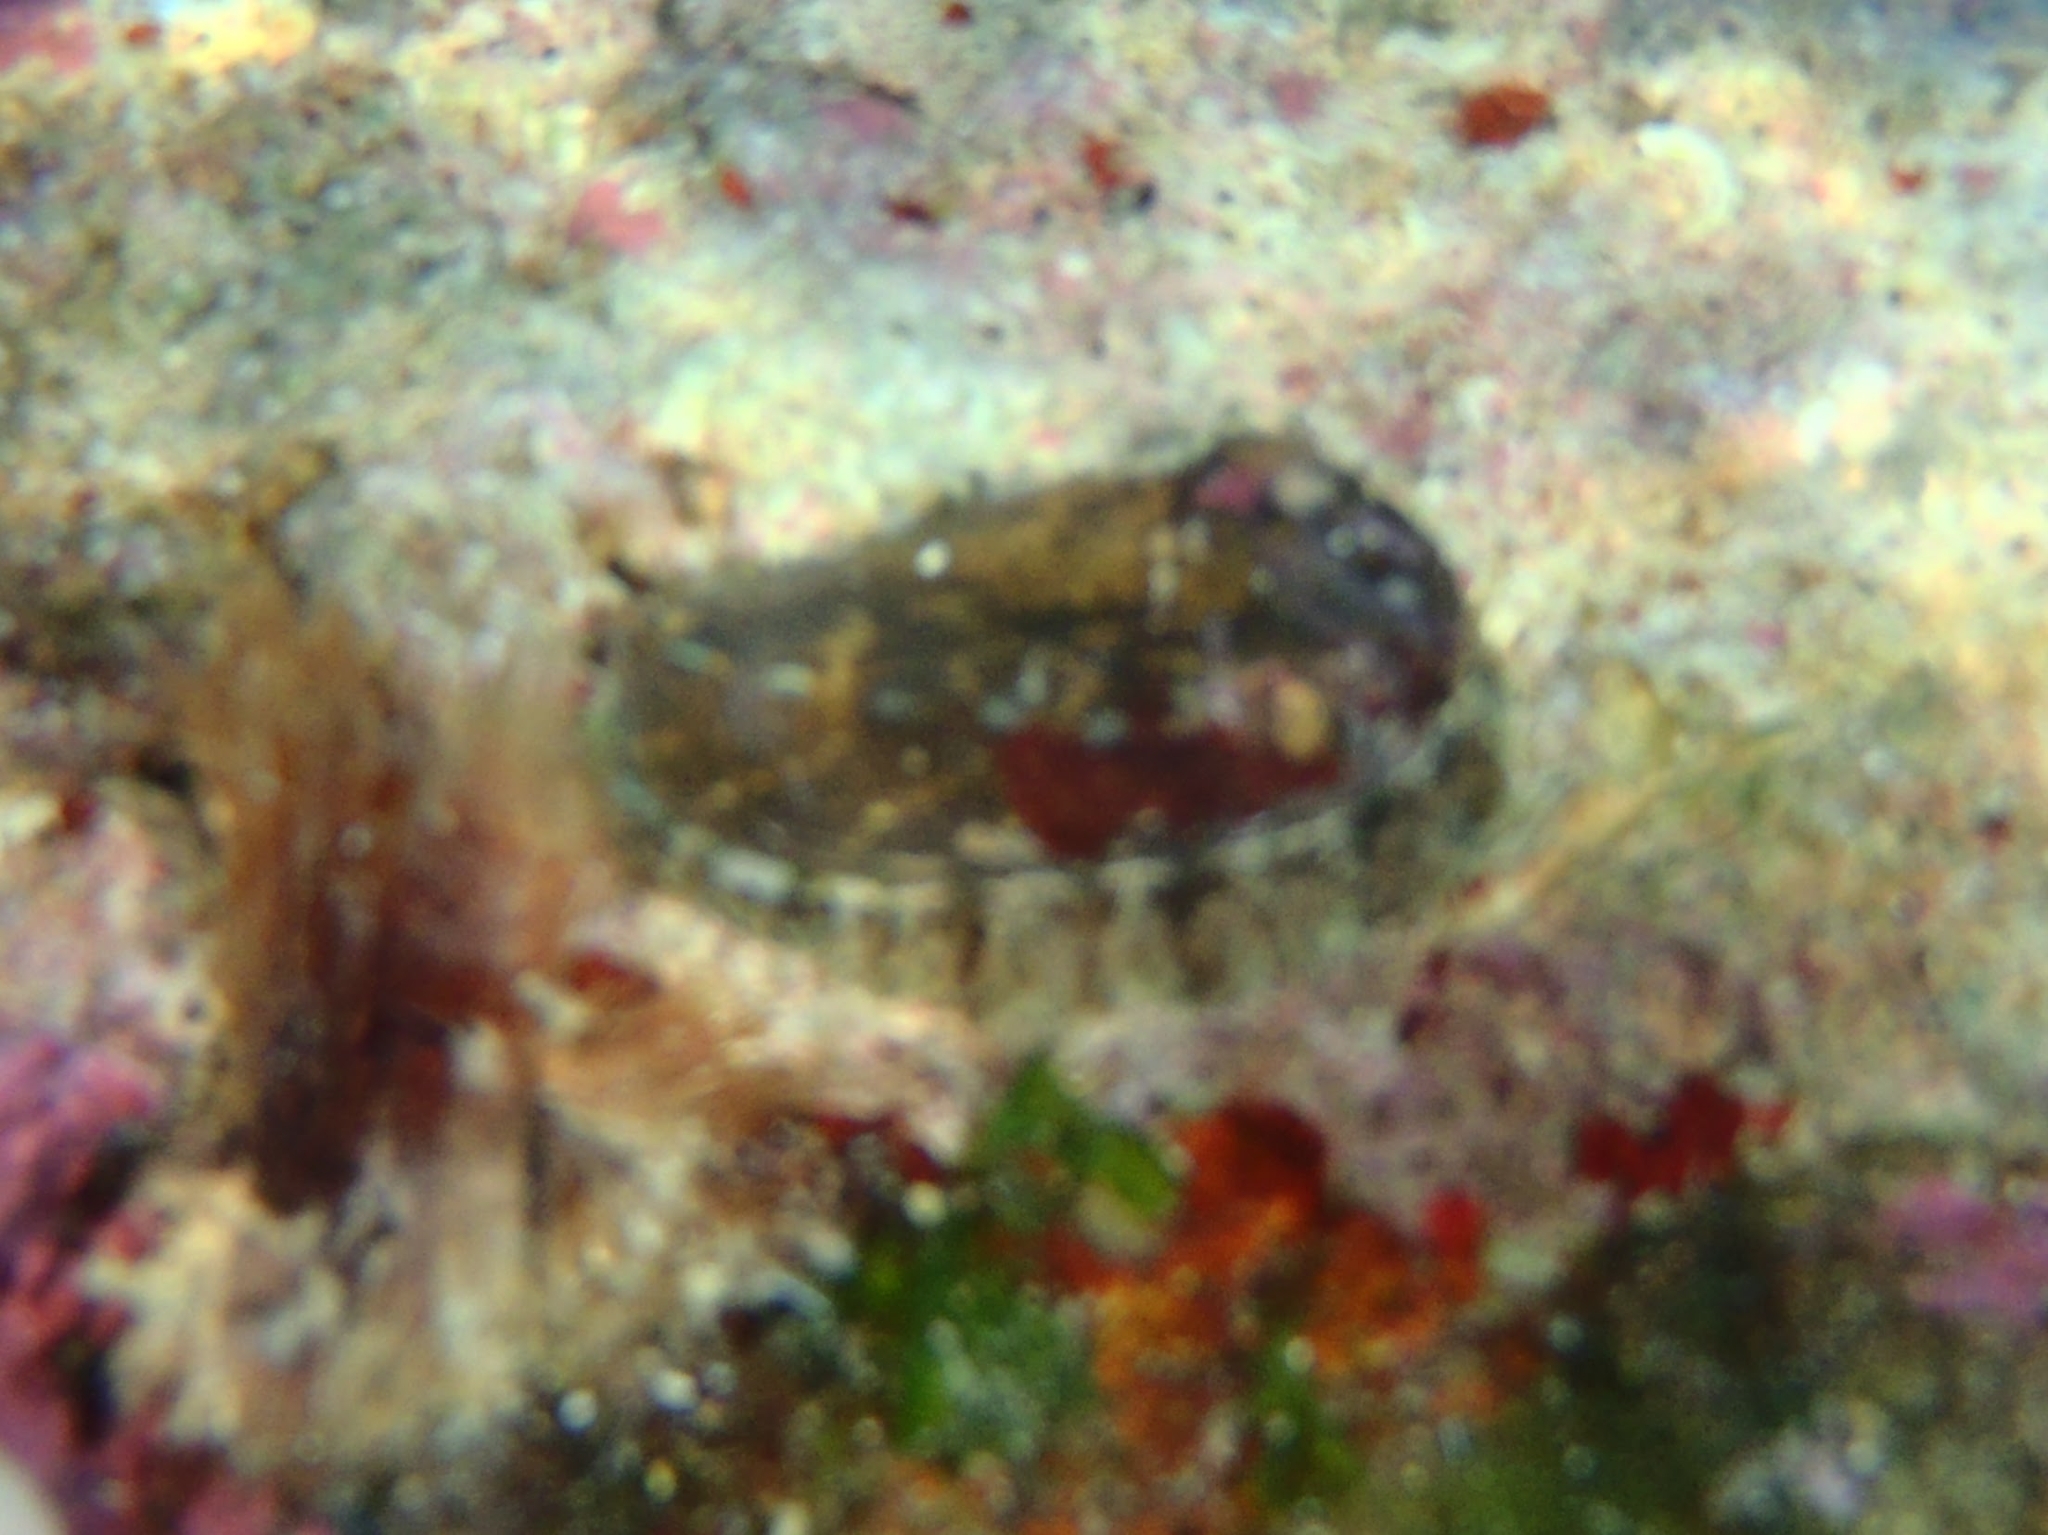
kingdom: Animalia
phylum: Mollusca
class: Gastropoda
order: Lepetellida
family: Haliotidae
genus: Haliotis
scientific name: Haliotis tuberculata
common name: Green ormer
